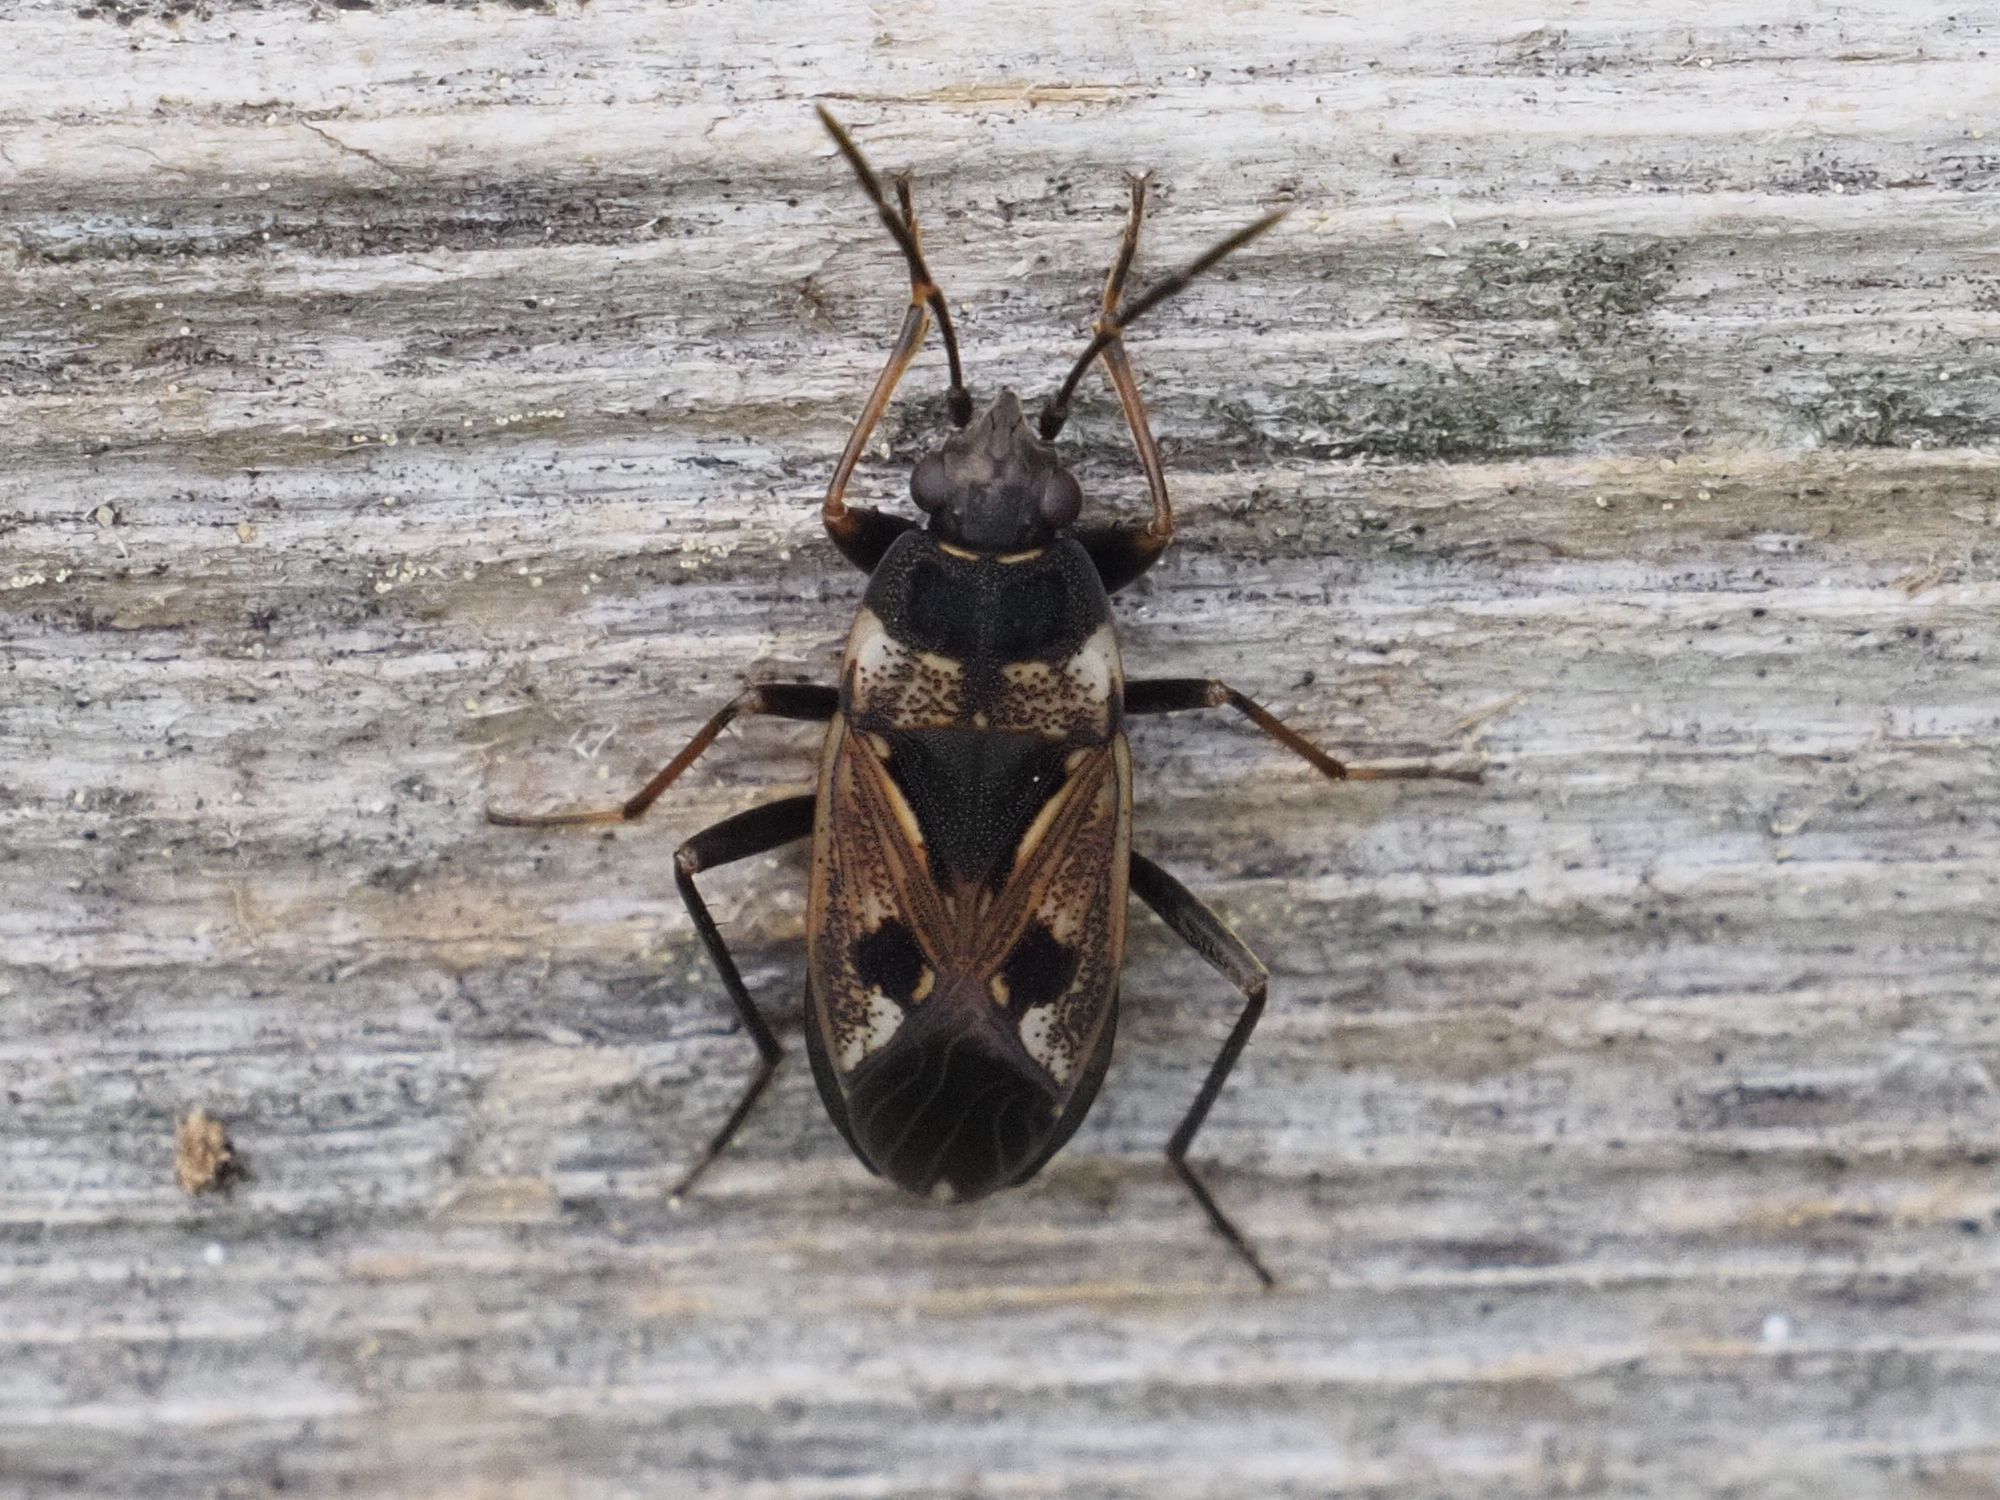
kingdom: Animalia
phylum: Arthropoda
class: Insecta
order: Hemiptera
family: Rhyparochromidae
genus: Rhyparochromus
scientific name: Rhyparochromus vulgaris
